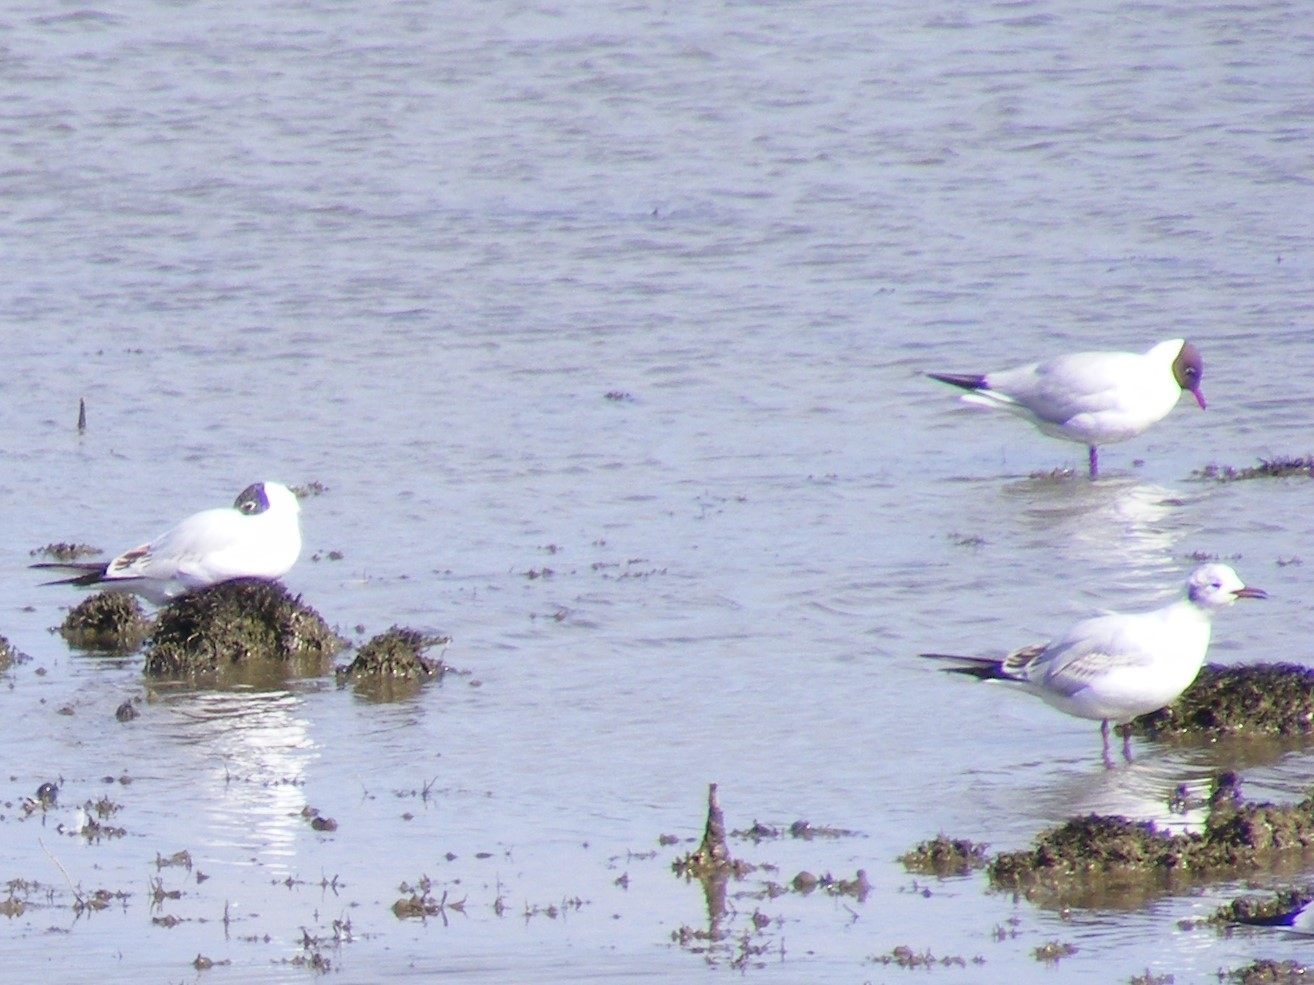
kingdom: Animalia
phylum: Chordata
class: Aves
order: Charadriiformes
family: Laridae
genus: Chroicocephalus
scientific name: Chroicocephalus ridibundus
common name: Black-headed gull
